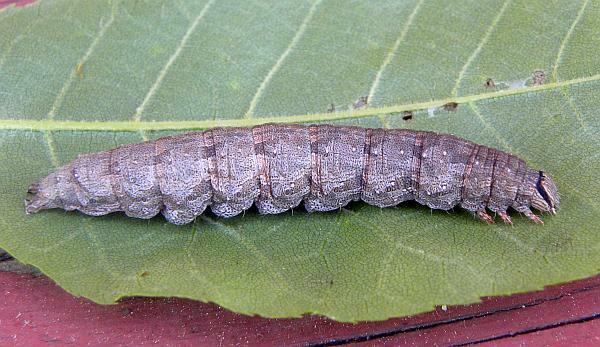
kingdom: Animalia
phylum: Arthropoda
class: Insecta
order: Lepidoptera
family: Erebidae
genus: Catocala
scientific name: Catocala epione
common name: Epione underwing
